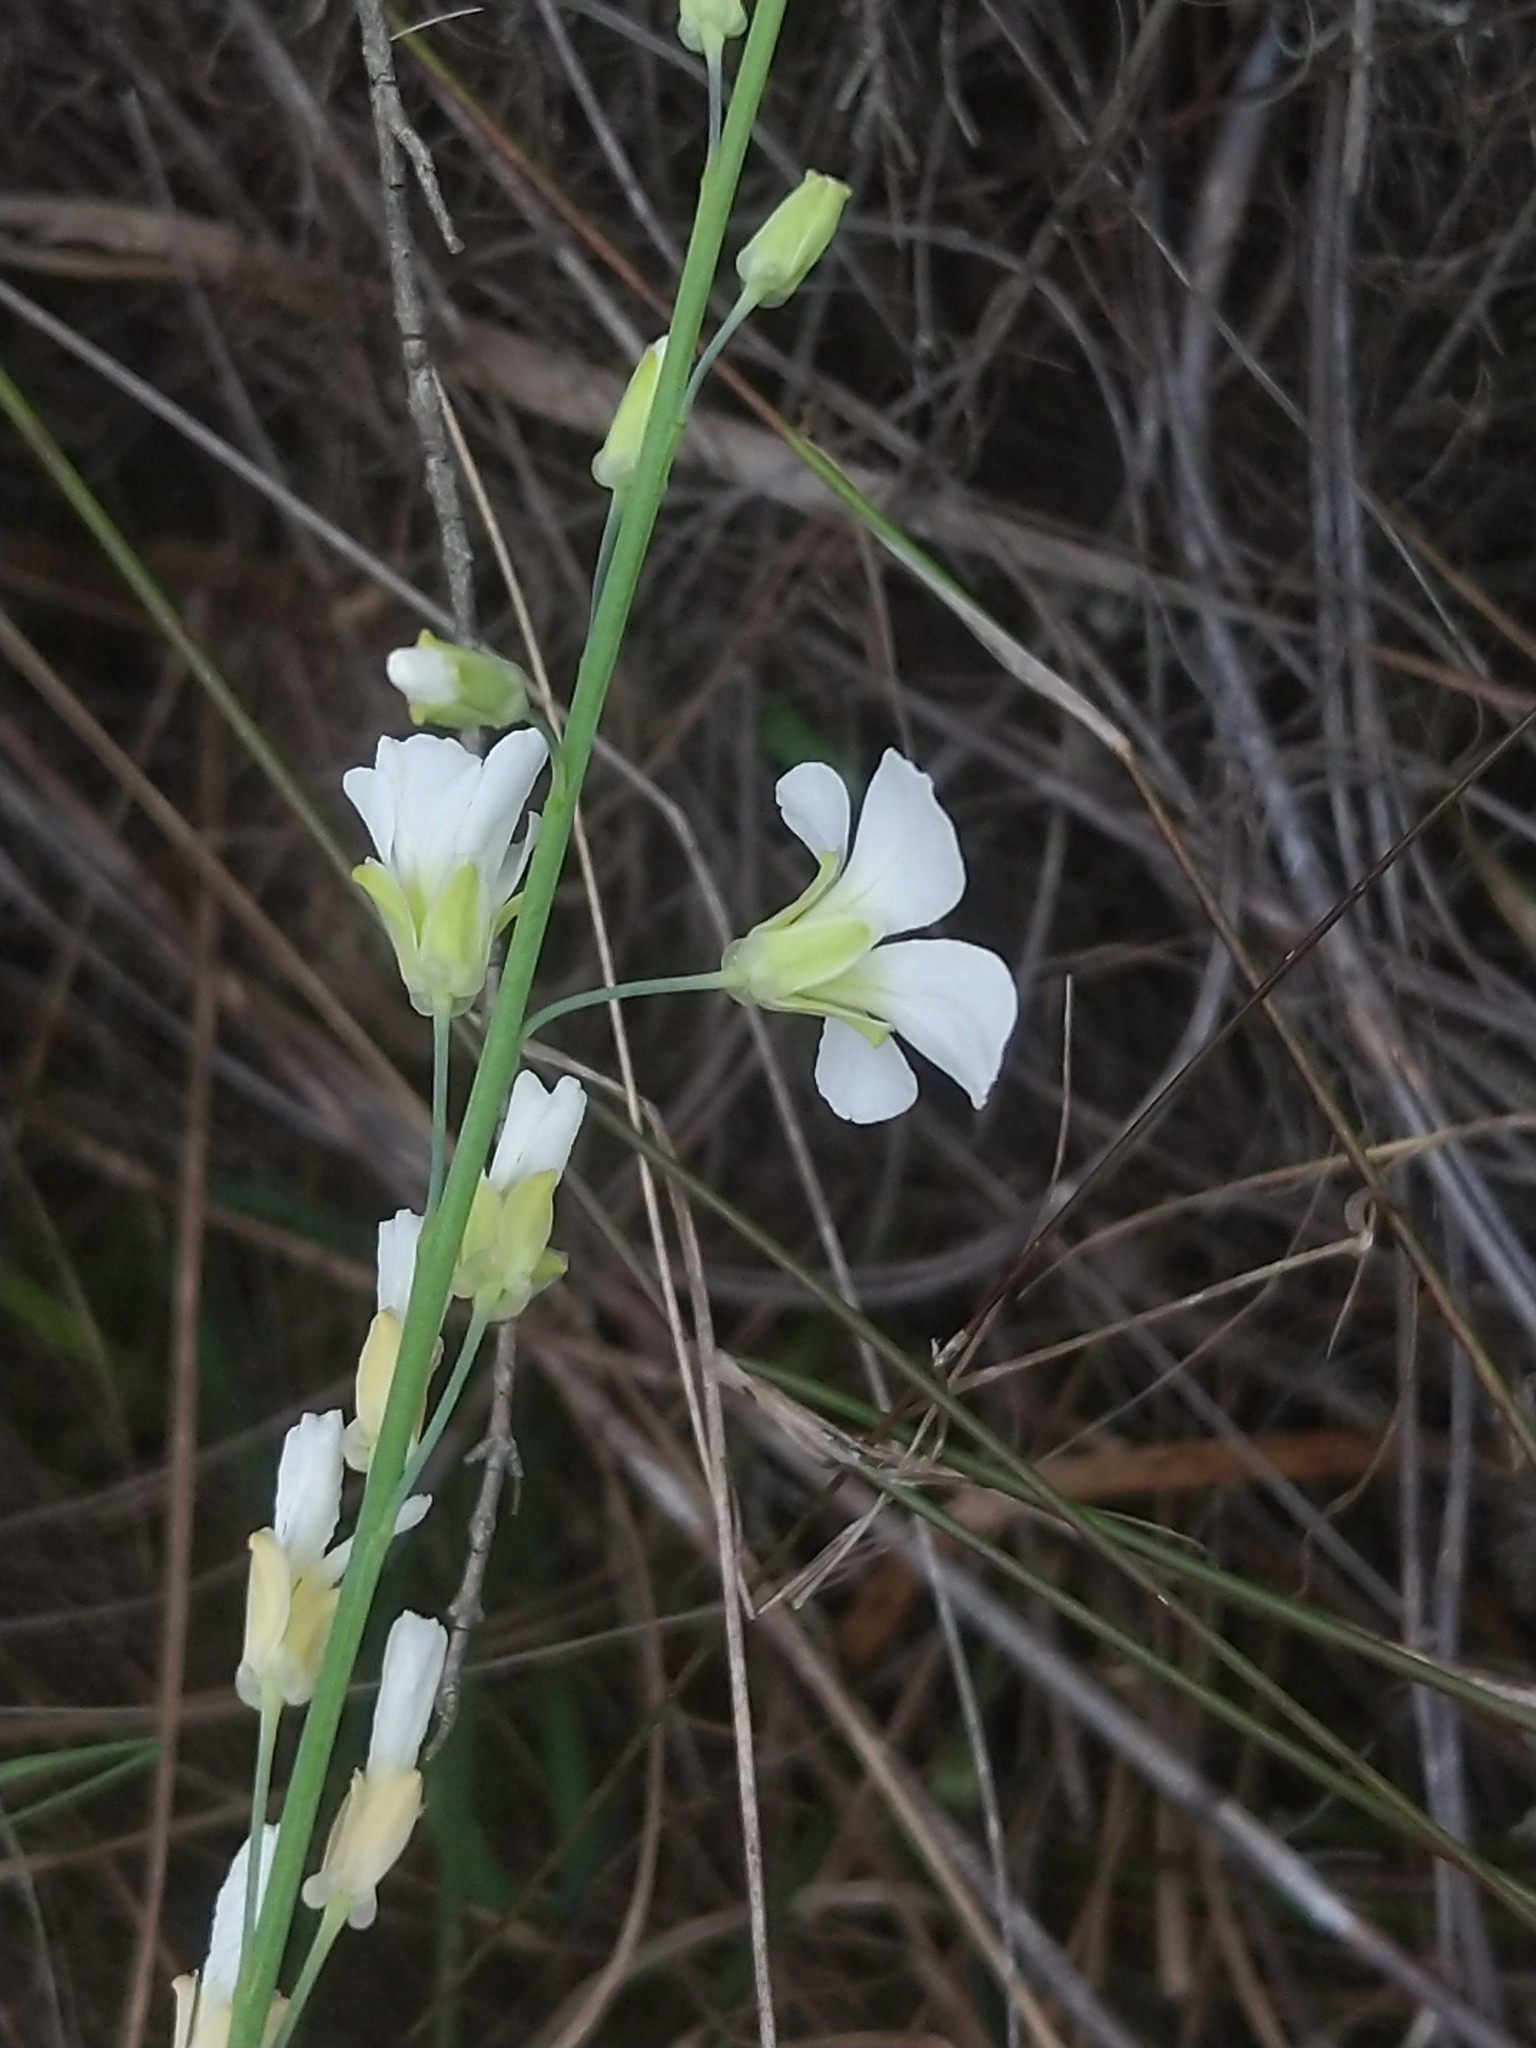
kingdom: Plantae
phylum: Tracheophyta
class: Magnoliopsida
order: Brassicales
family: Brassicaceae
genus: Heliophila
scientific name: Heliophila glauca
